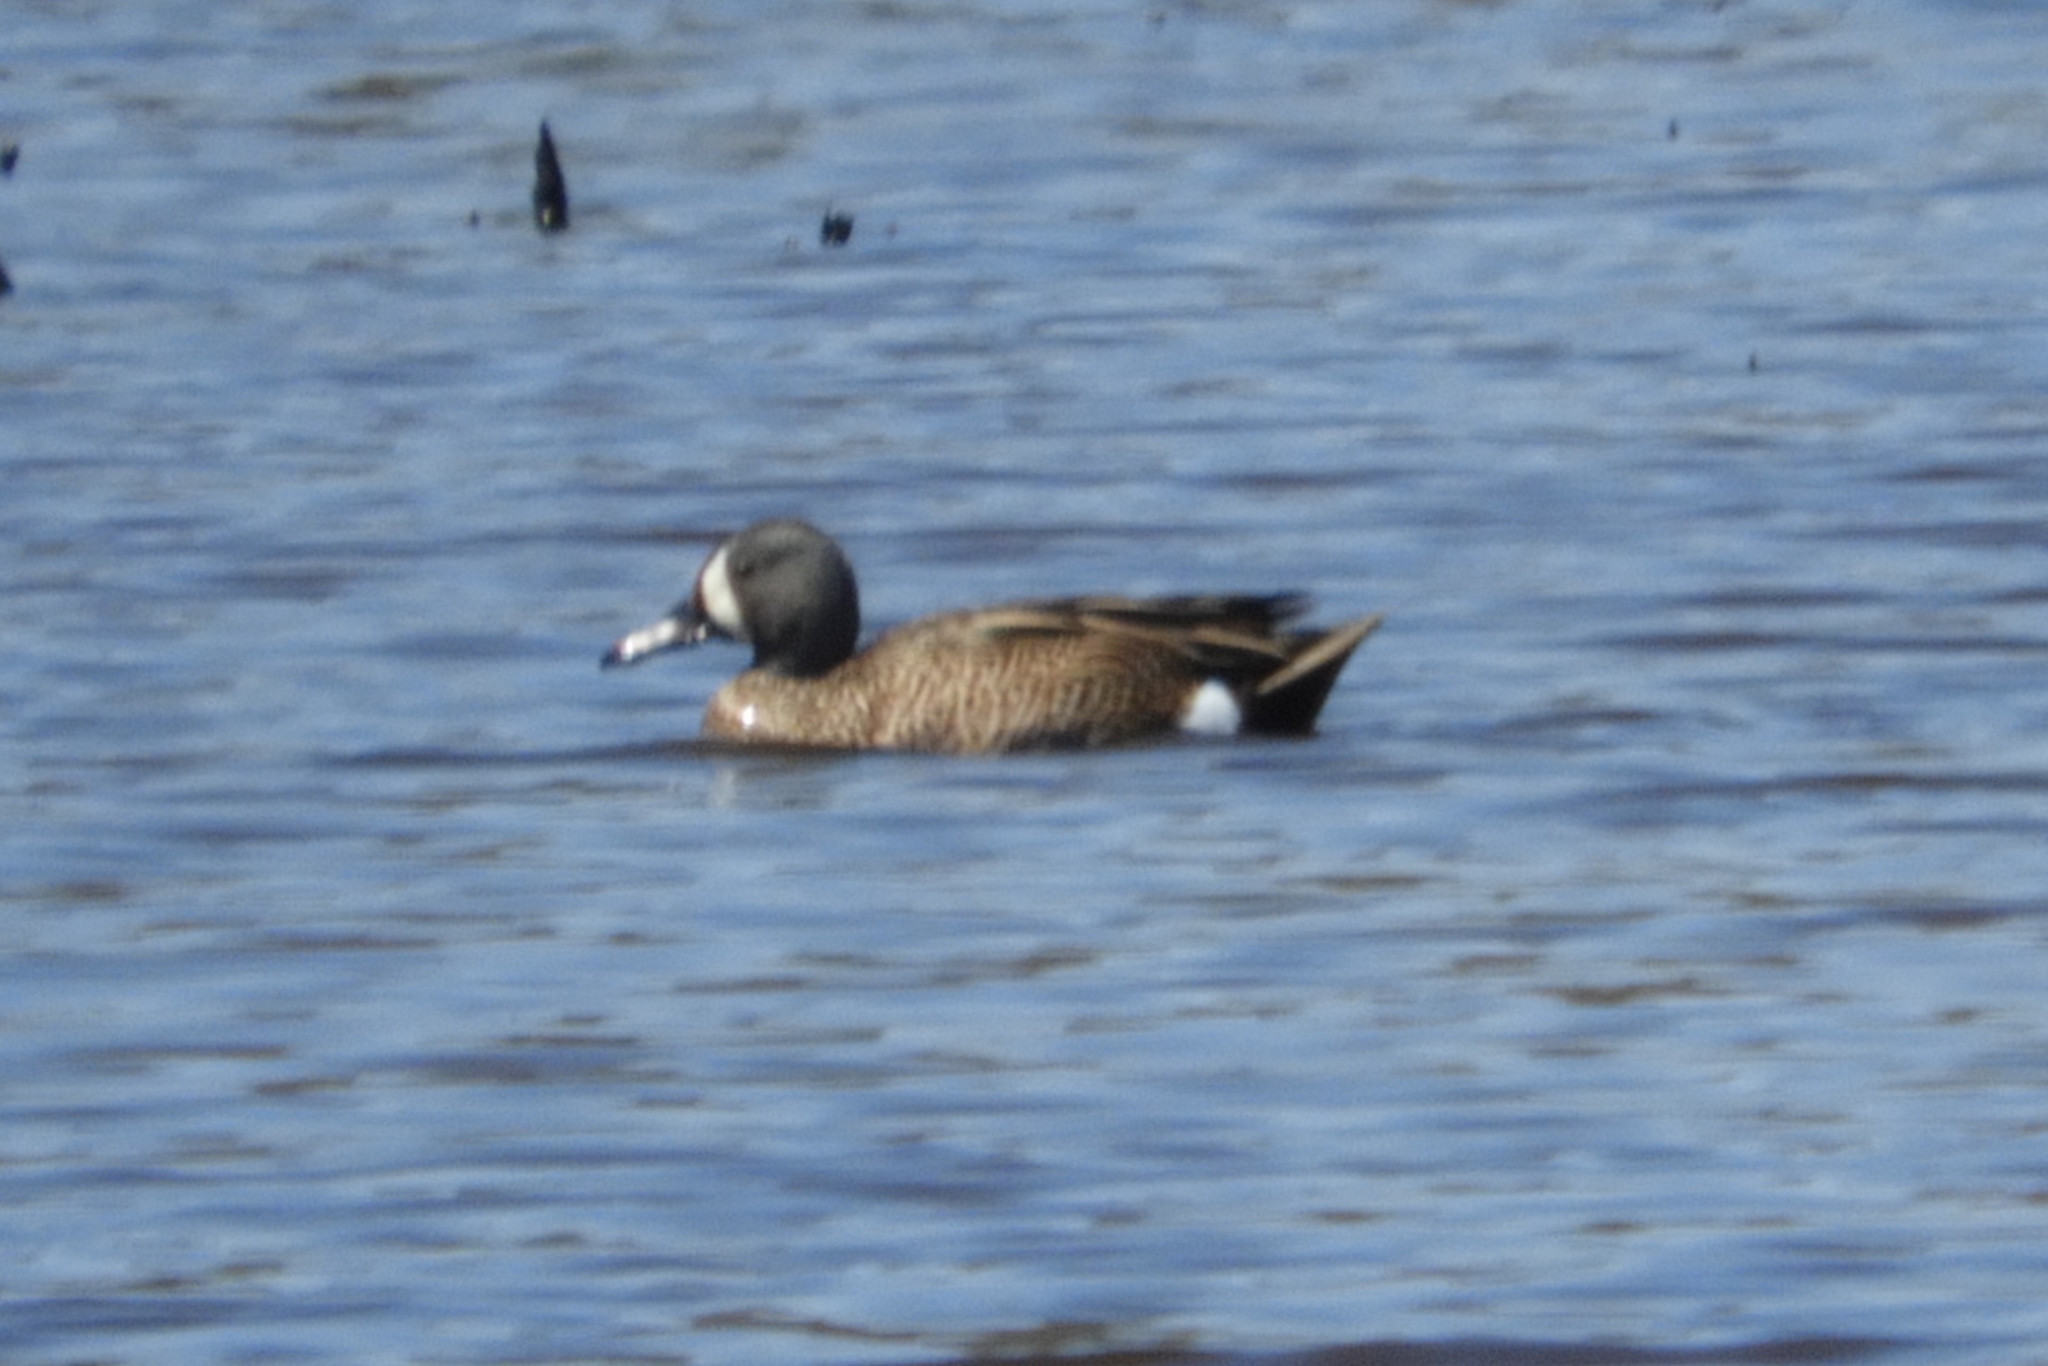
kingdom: Animalia
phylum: Chordata
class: Aves
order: Anseriformes
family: Anatidae
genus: Spatula
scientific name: Spatula discors
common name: Blue-winged teal
